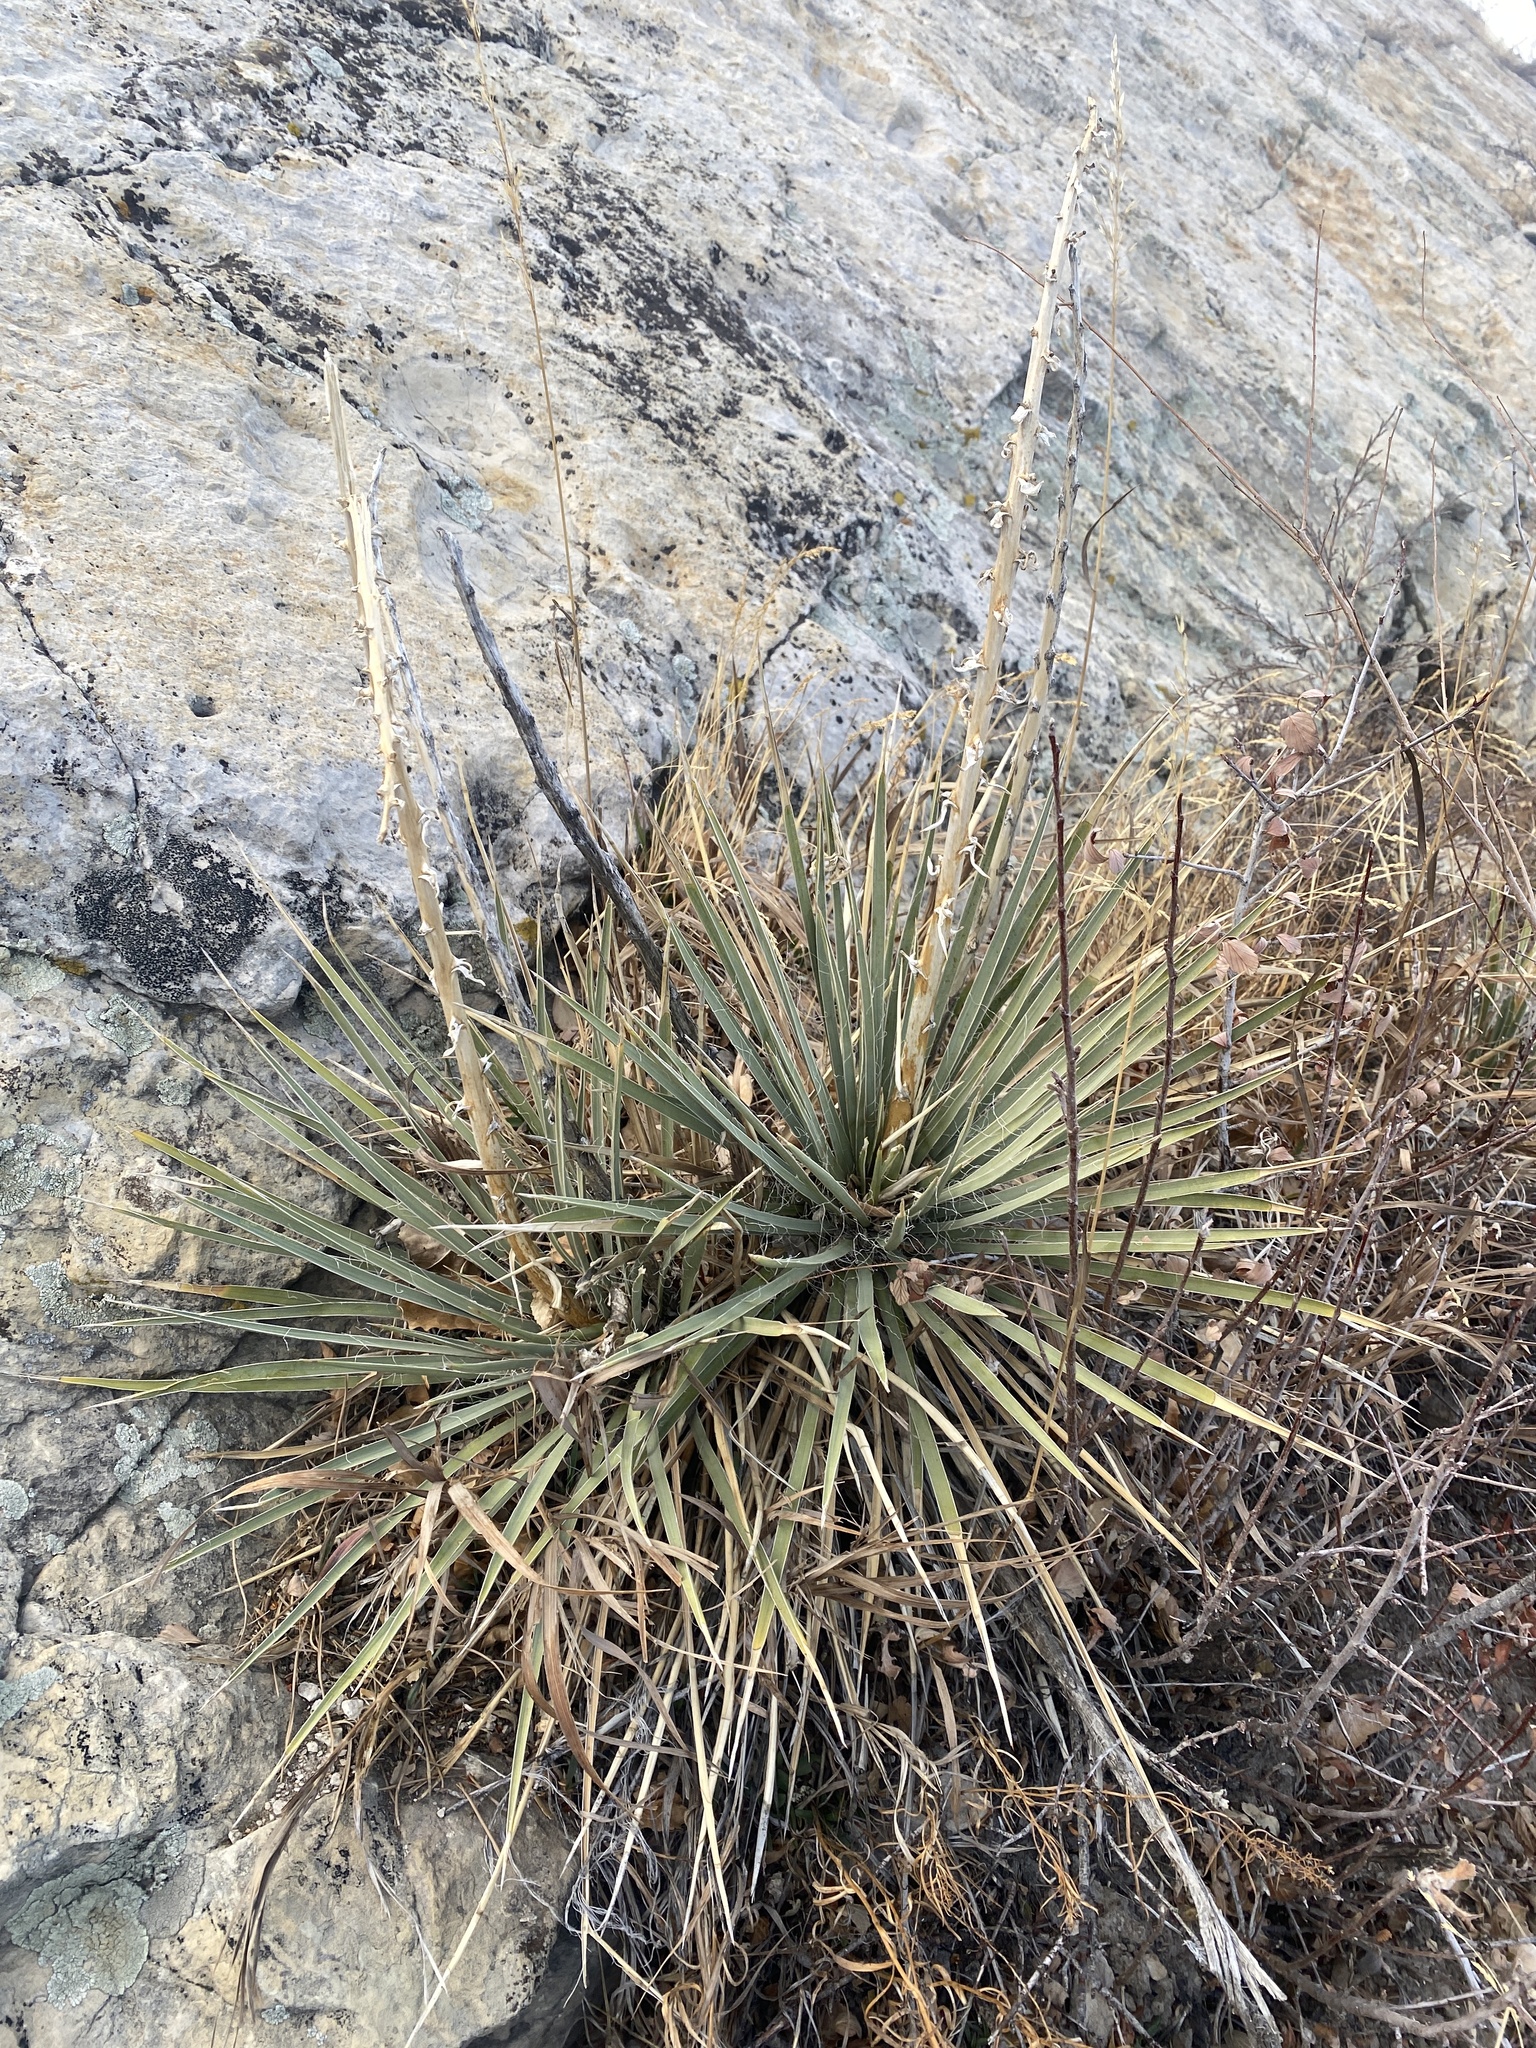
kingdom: Plantae
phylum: Tracheophyta
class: Liliopsida
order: Asparagales
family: Asparagaceae
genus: Yucca
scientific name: Yucca glauca
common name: Great plains yucca
